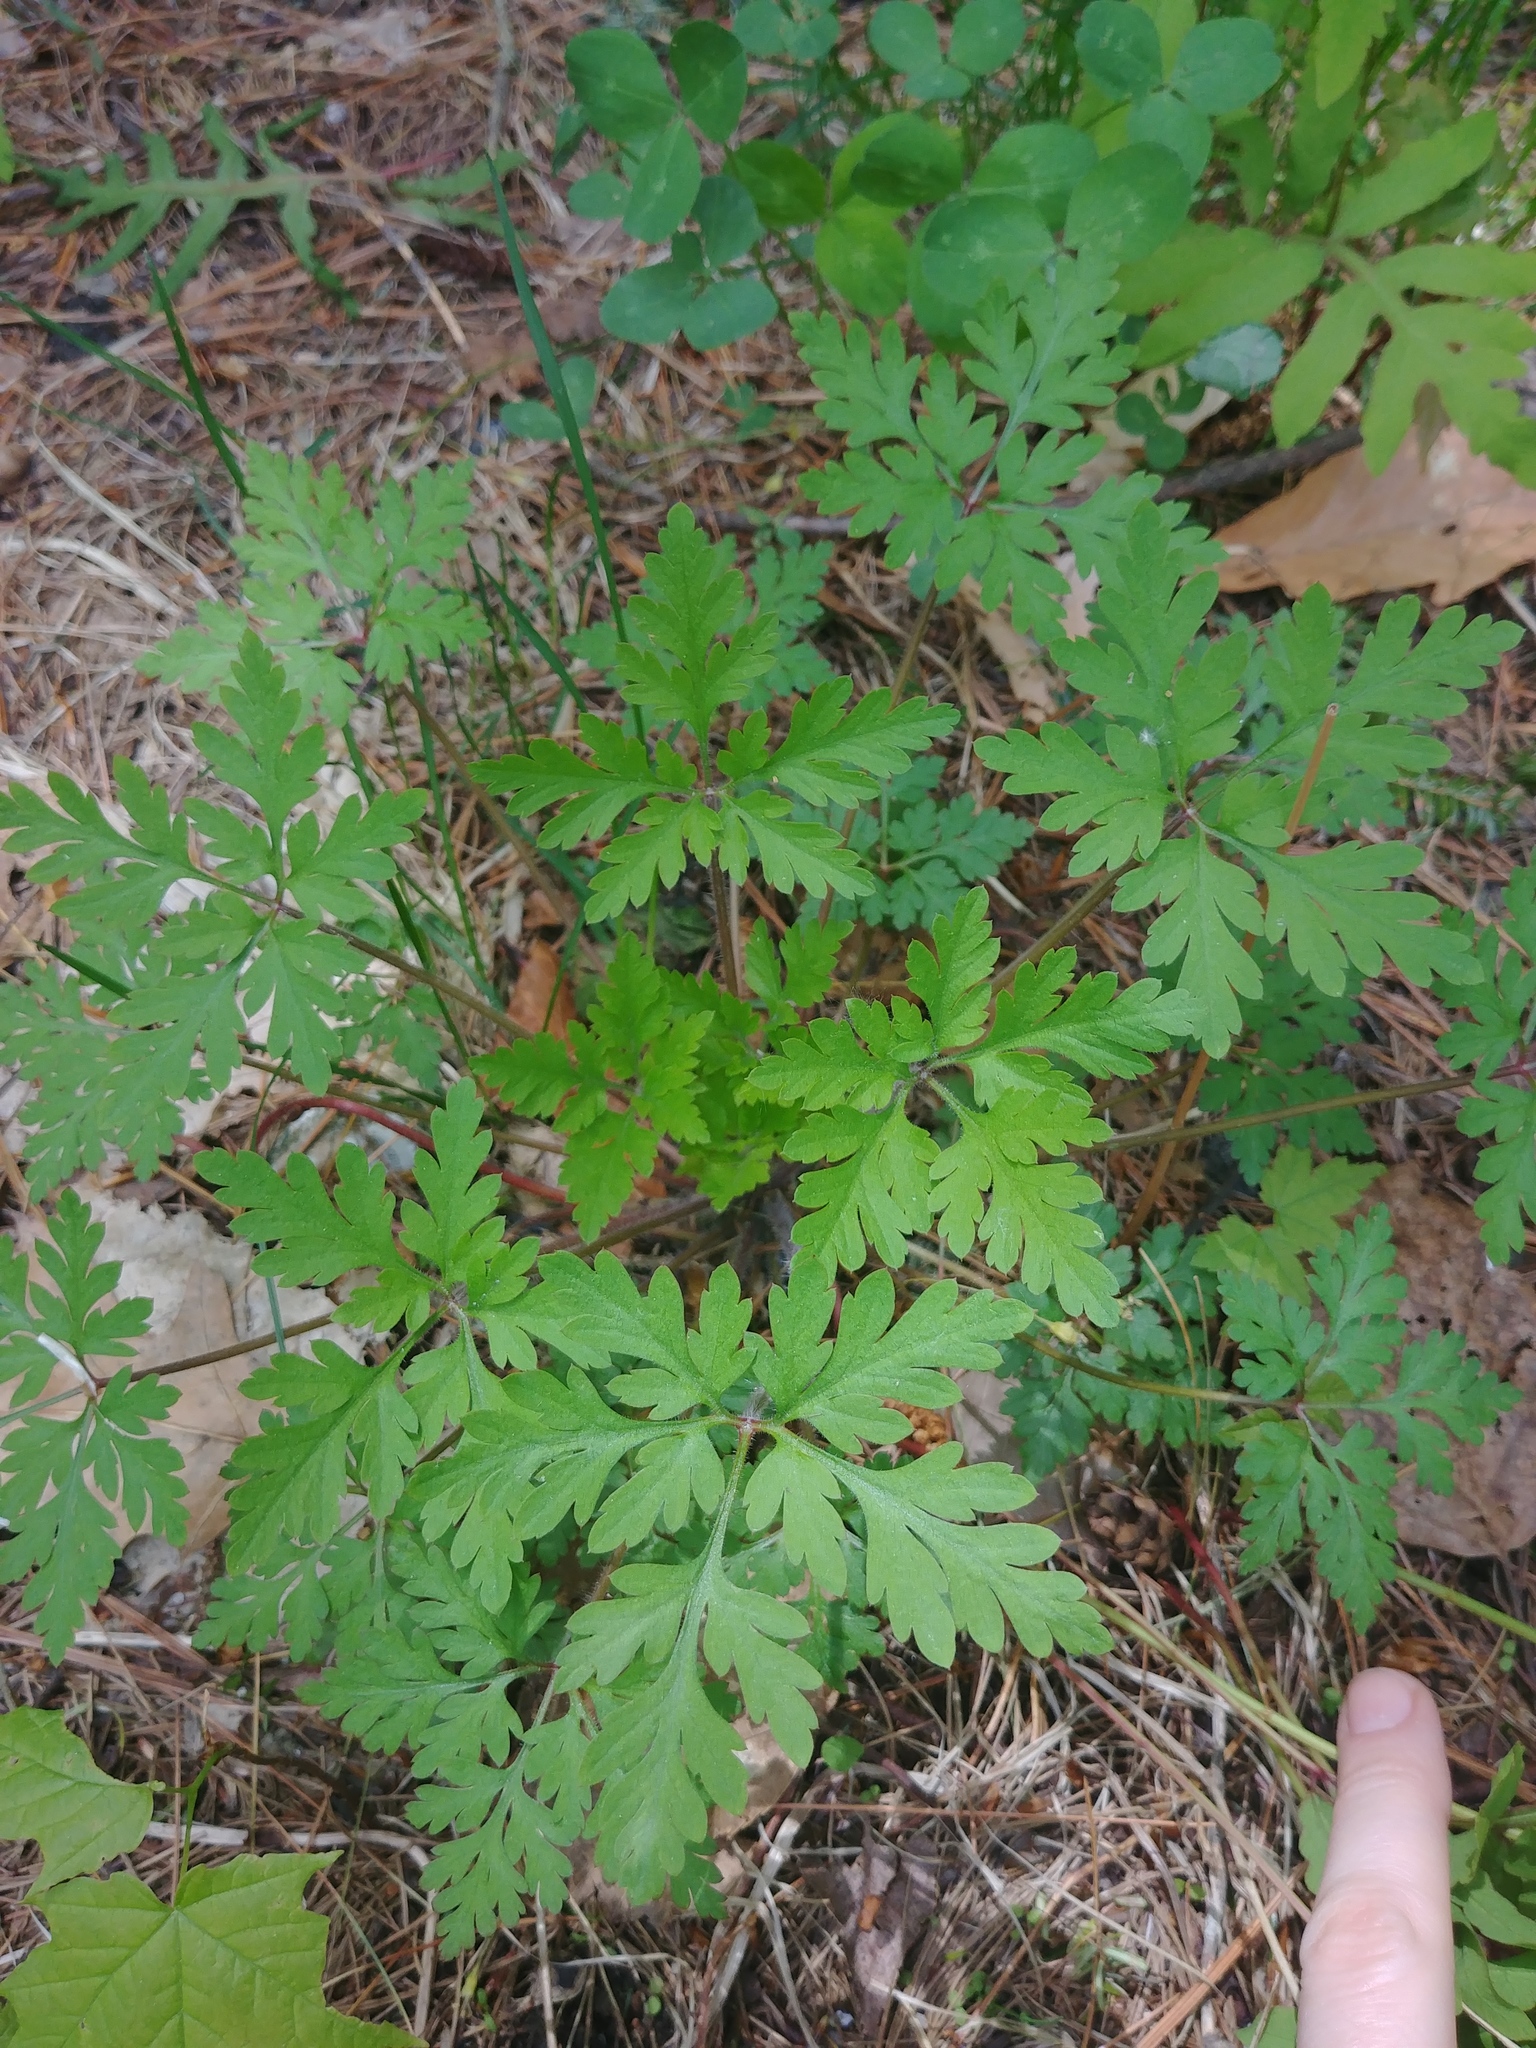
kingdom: Plantae
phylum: Tracheophyta
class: Magnoliopsida
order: Geraniales
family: Geraniaceae
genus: Geranium
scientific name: Geranium robertianum
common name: Herb-robert
